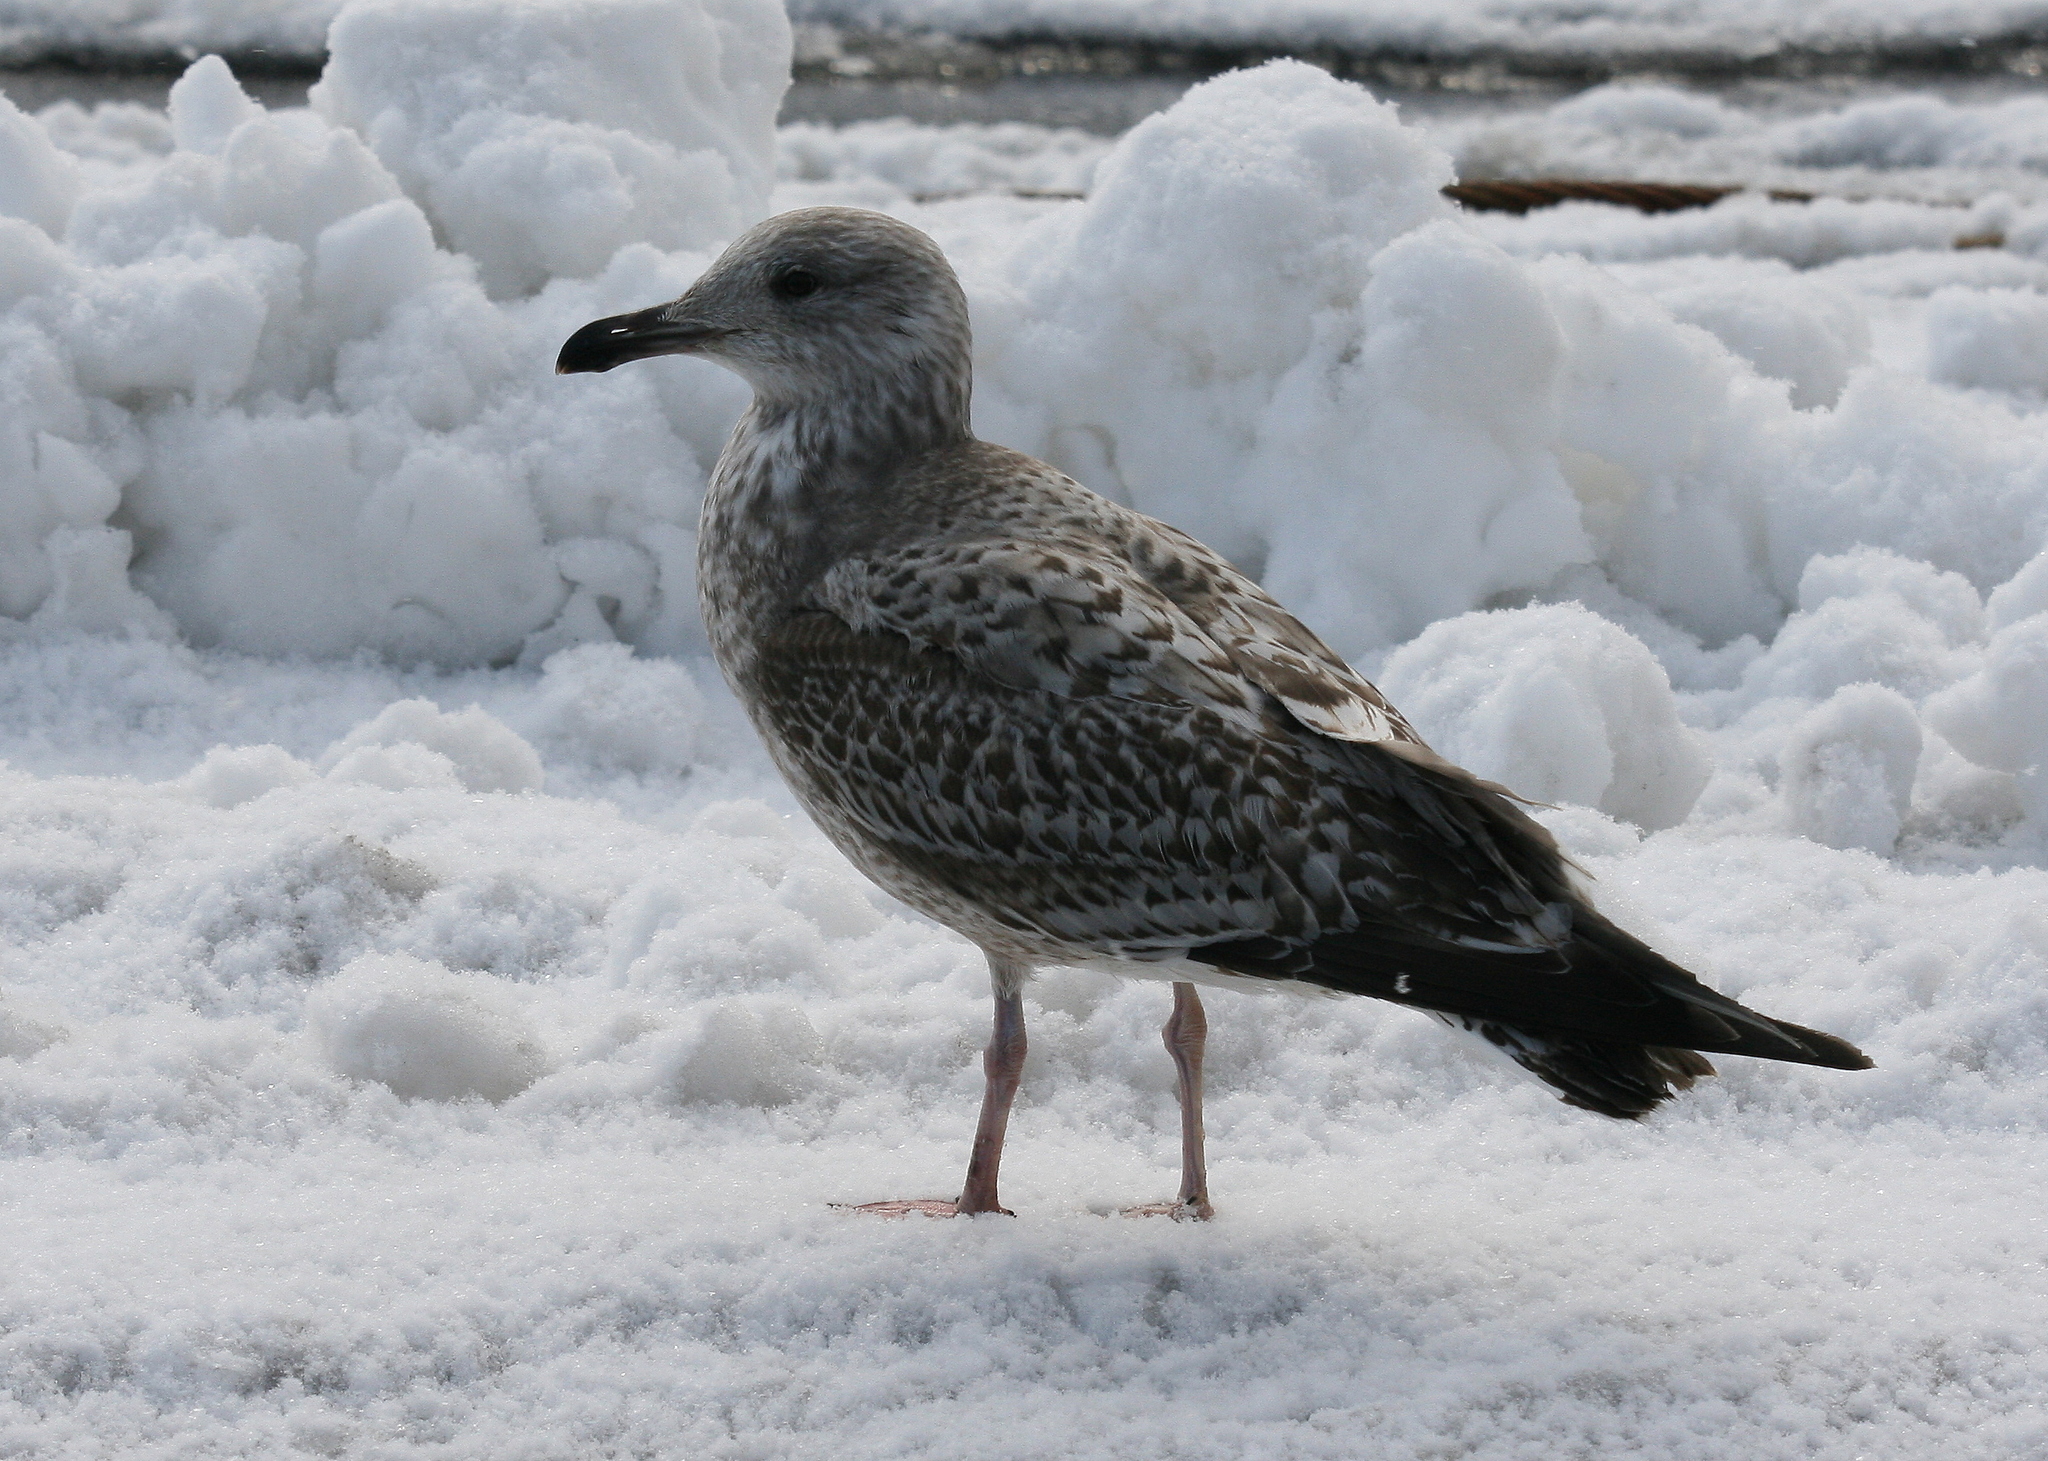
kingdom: Animalia
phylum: Chordata
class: Aves
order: Charadriiformes
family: Laridae
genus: Larus
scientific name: Larus argentatus
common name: Herring gull
